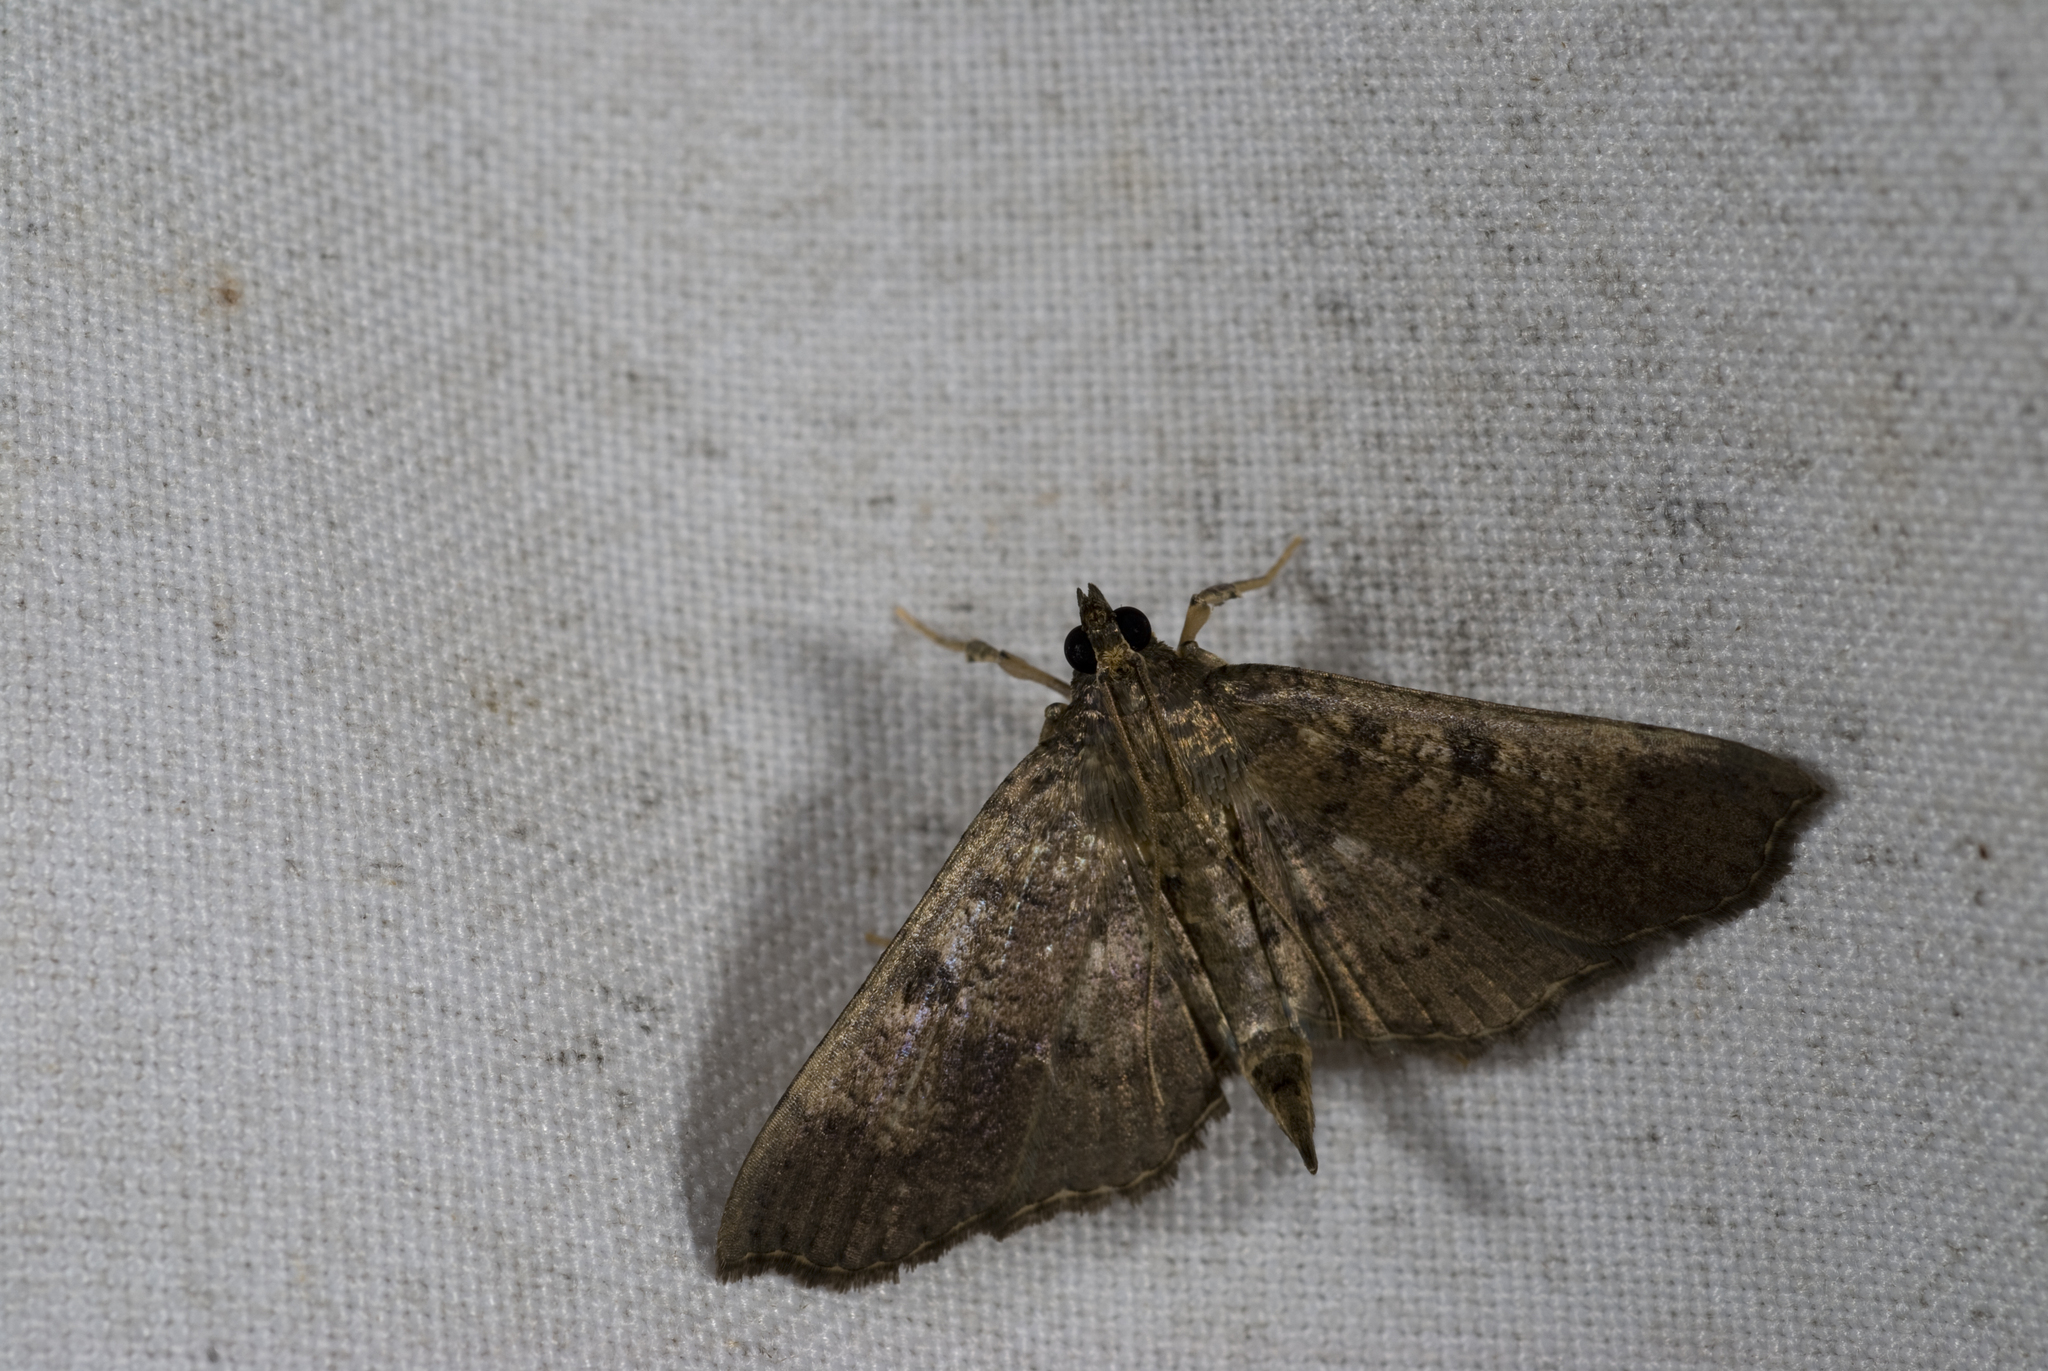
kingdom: Animalia
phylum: Arthropoda
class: Insecta
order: Lepidoptera
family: Crambidae
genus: Ceratarcha
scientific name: Ceratarcha umbrosa
